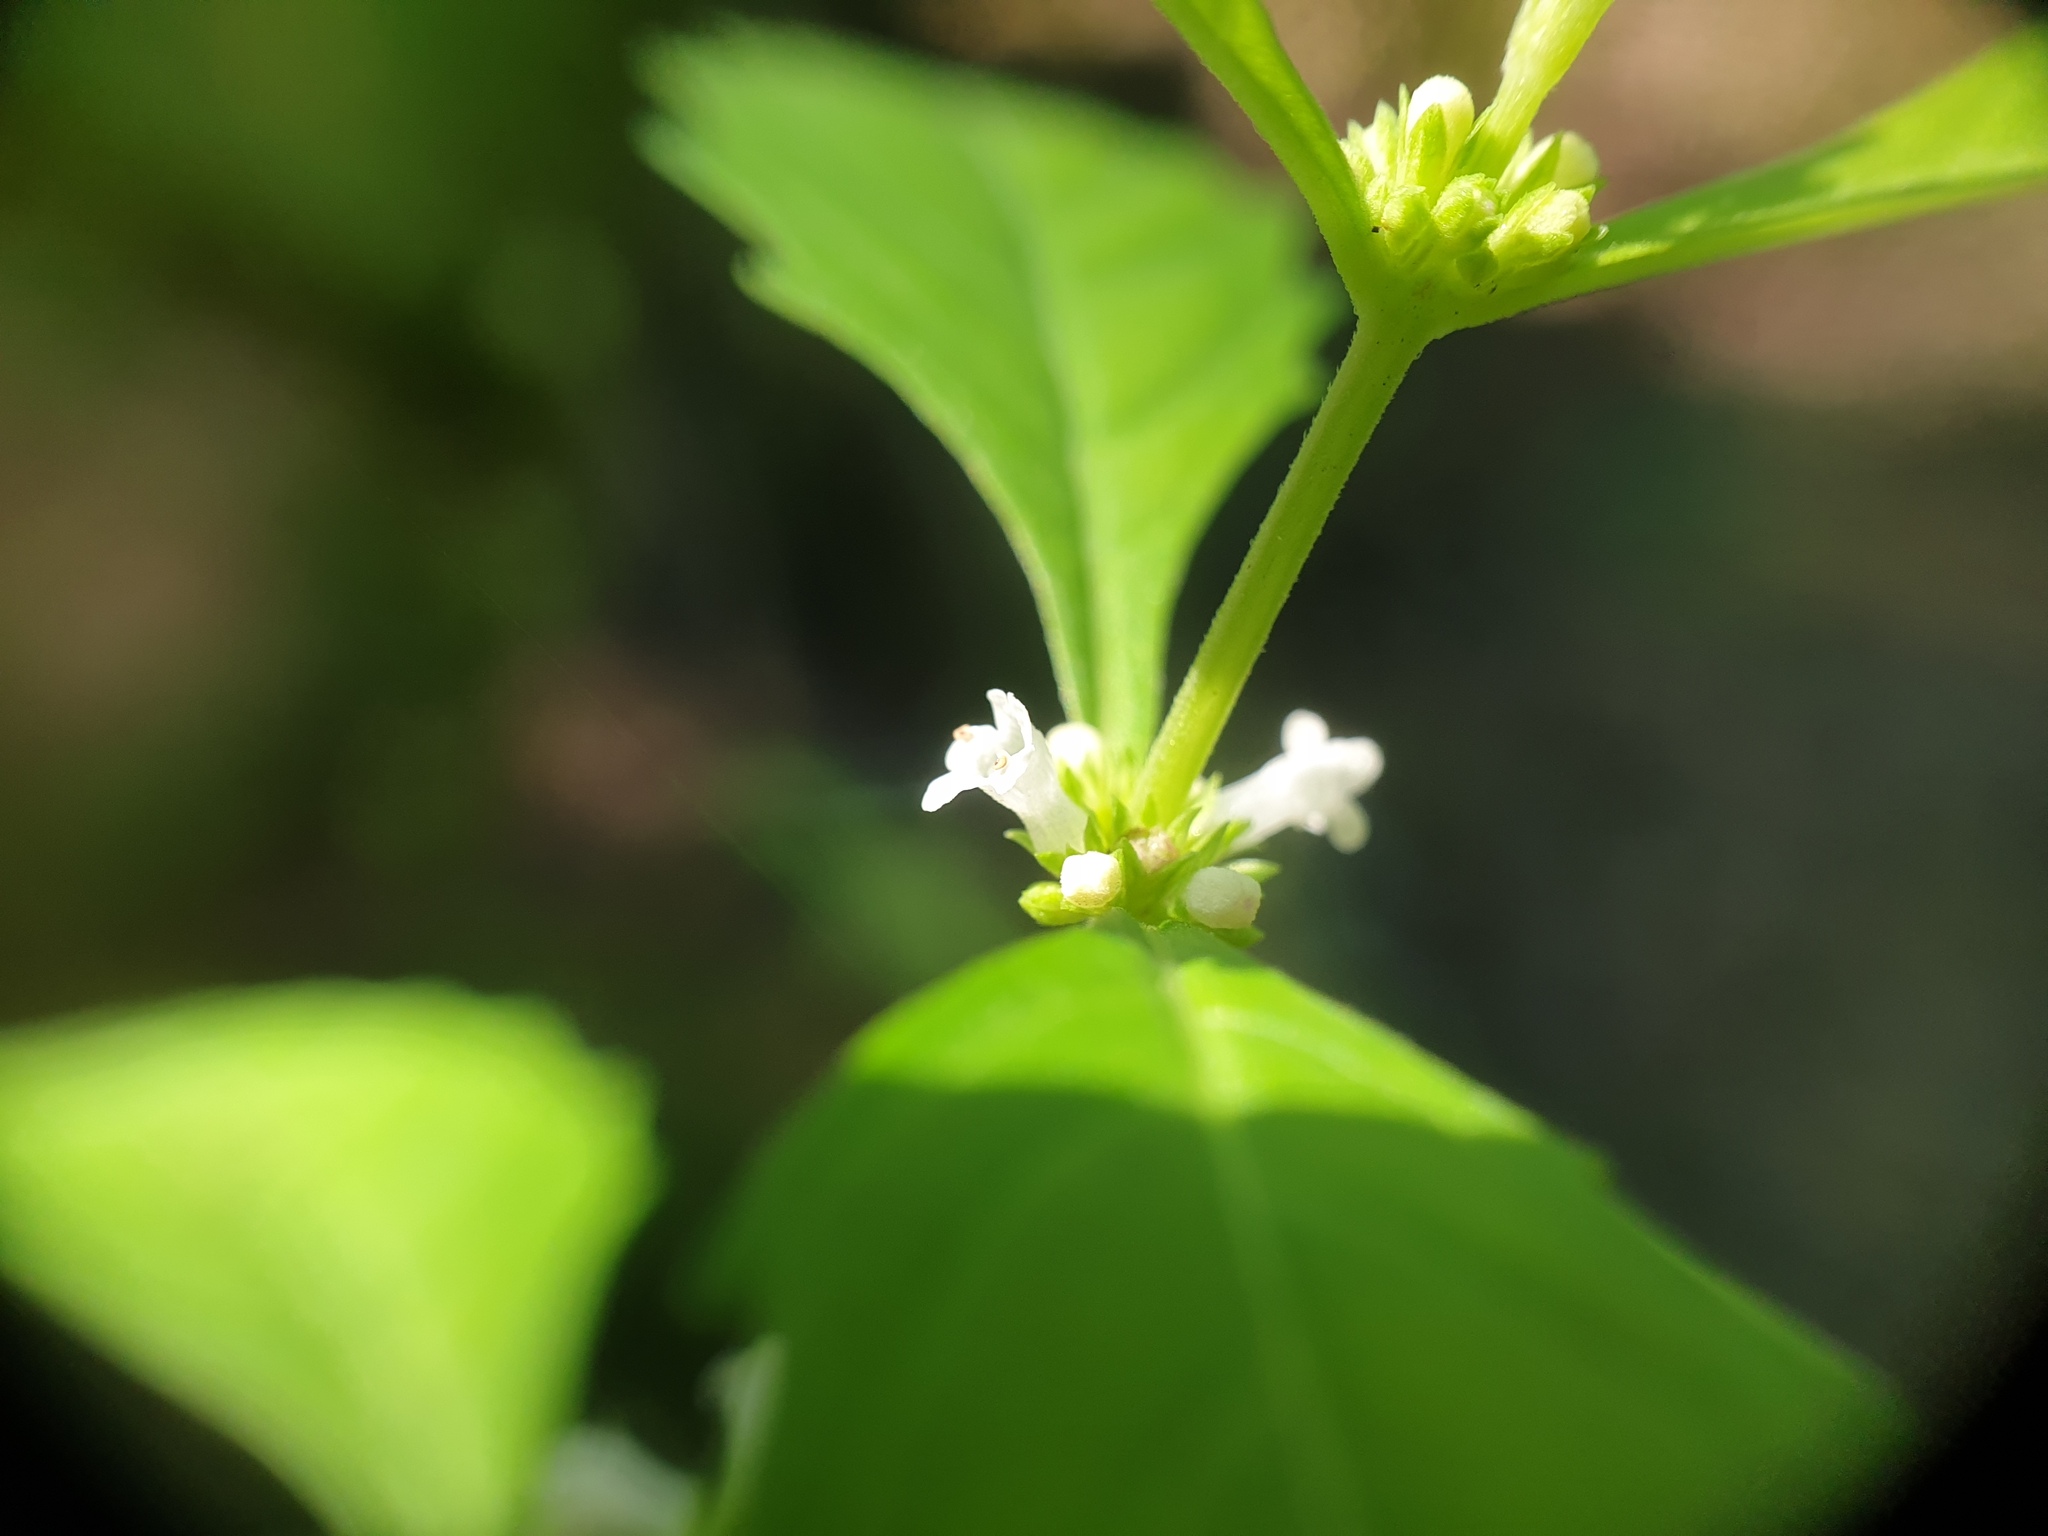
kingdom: Plantae
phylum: Tracheophyta
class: Magnoliopsida
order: Lamiales
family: Lamiaceae
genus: Lycopus
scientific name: Lycopus uniflorus
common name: Northern bugleweed
